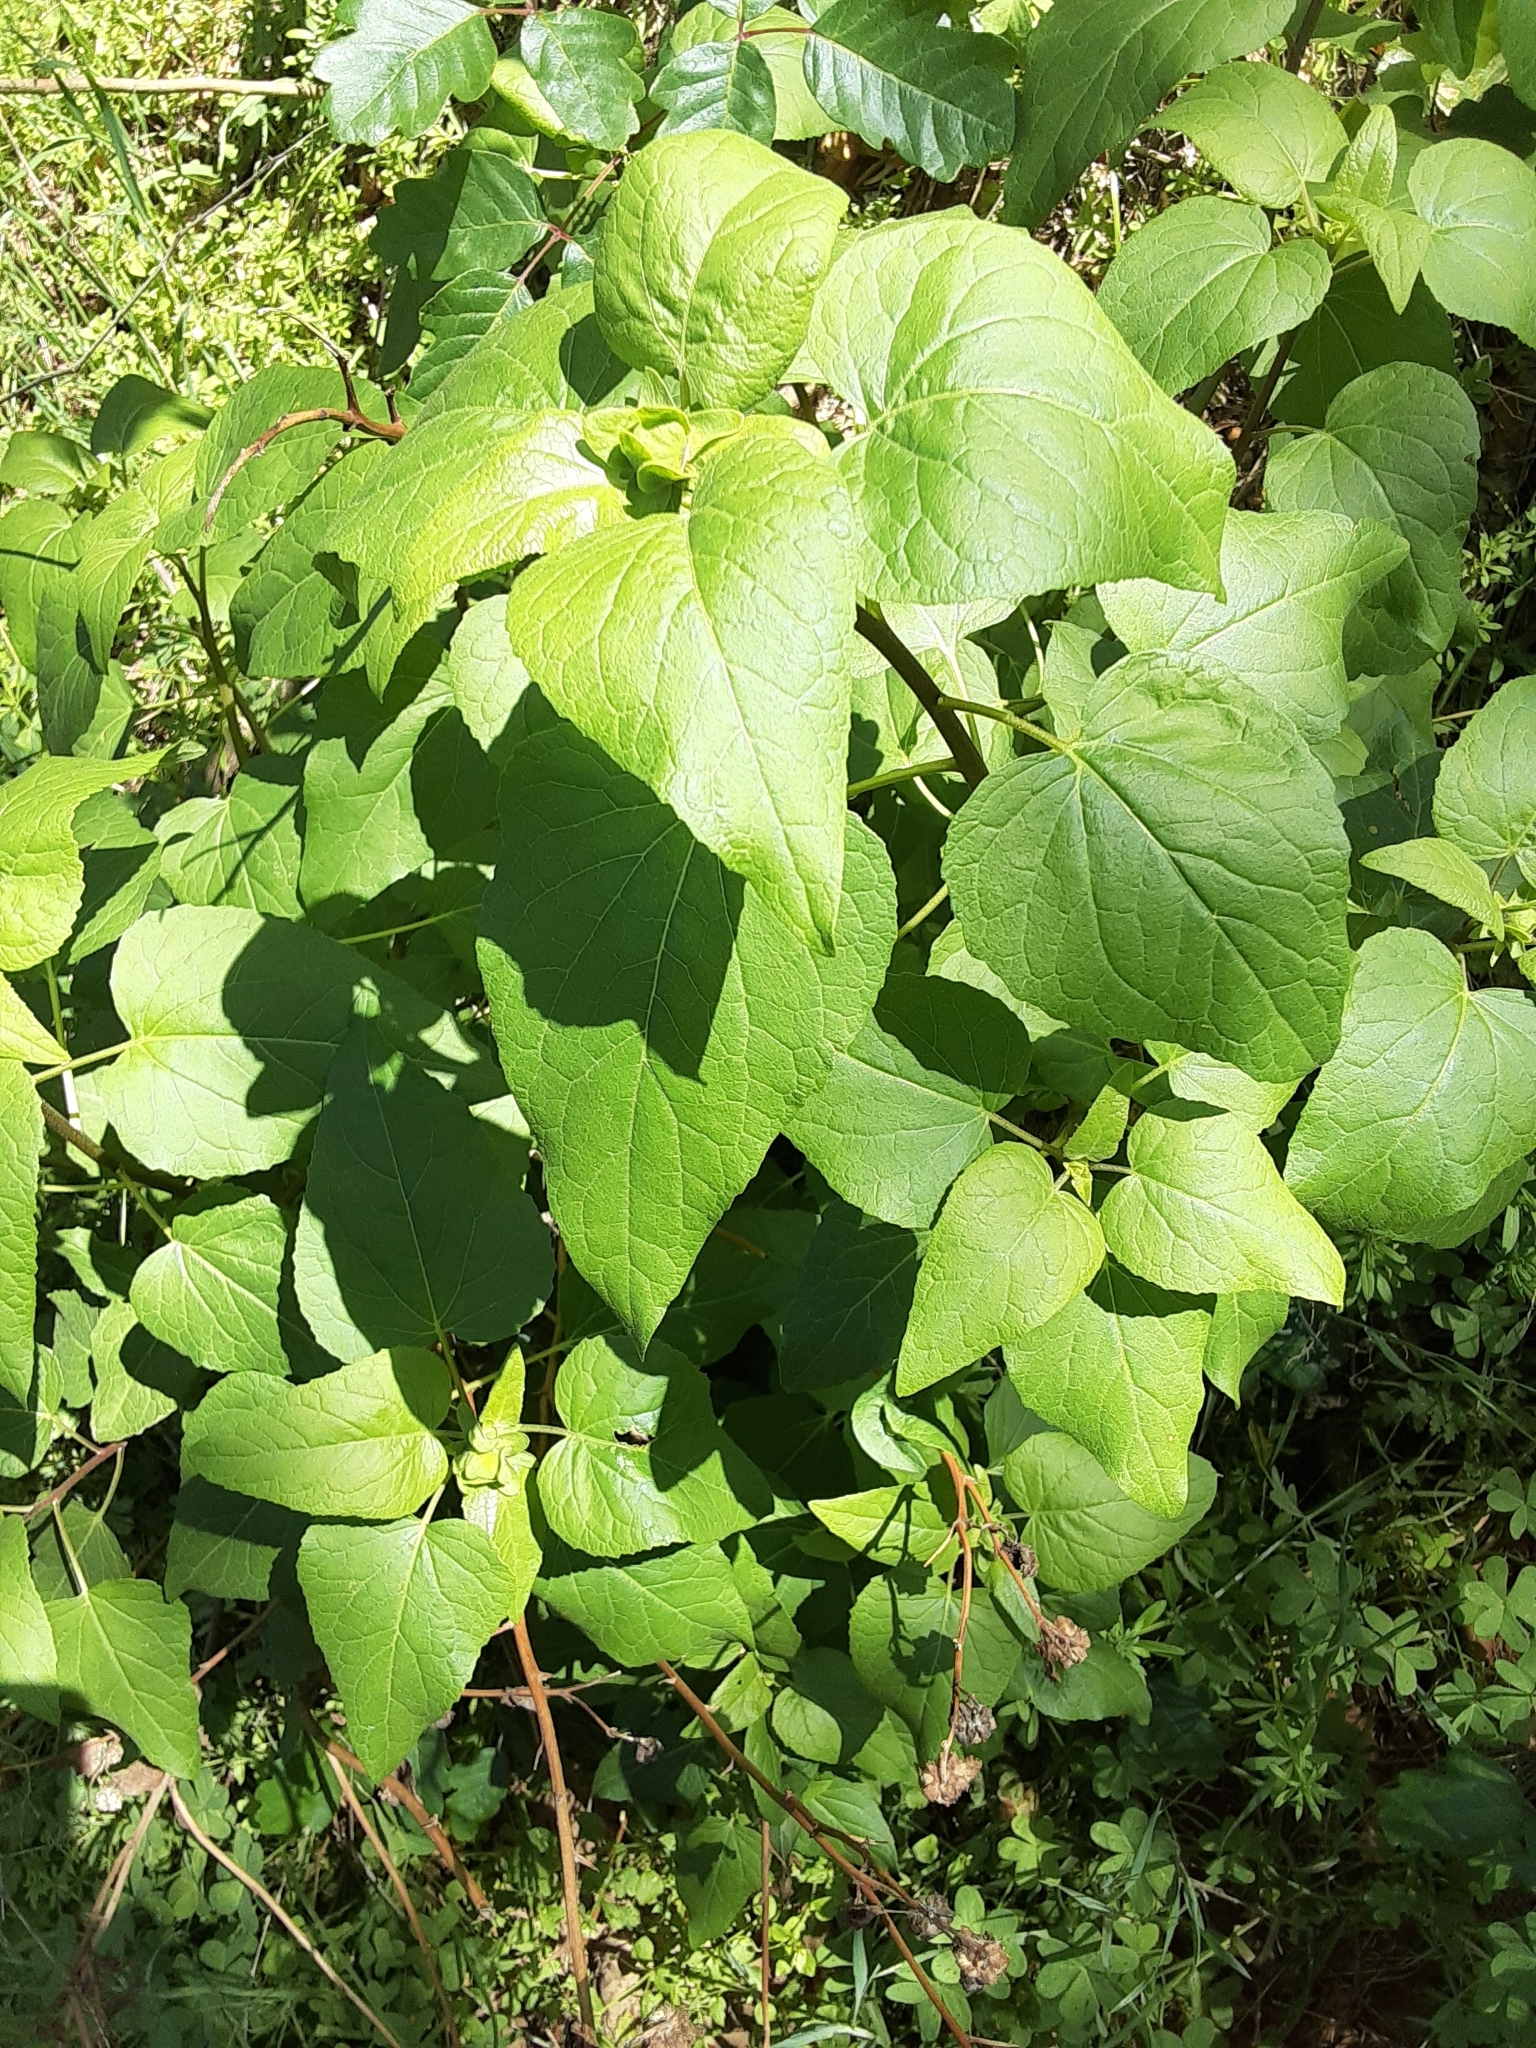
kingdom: Plantae
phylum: Tracheophyta
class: Magnoliopsida
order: Asterales
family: Asteraceae
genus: Venegasia
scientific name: Venegasia carpesioides
